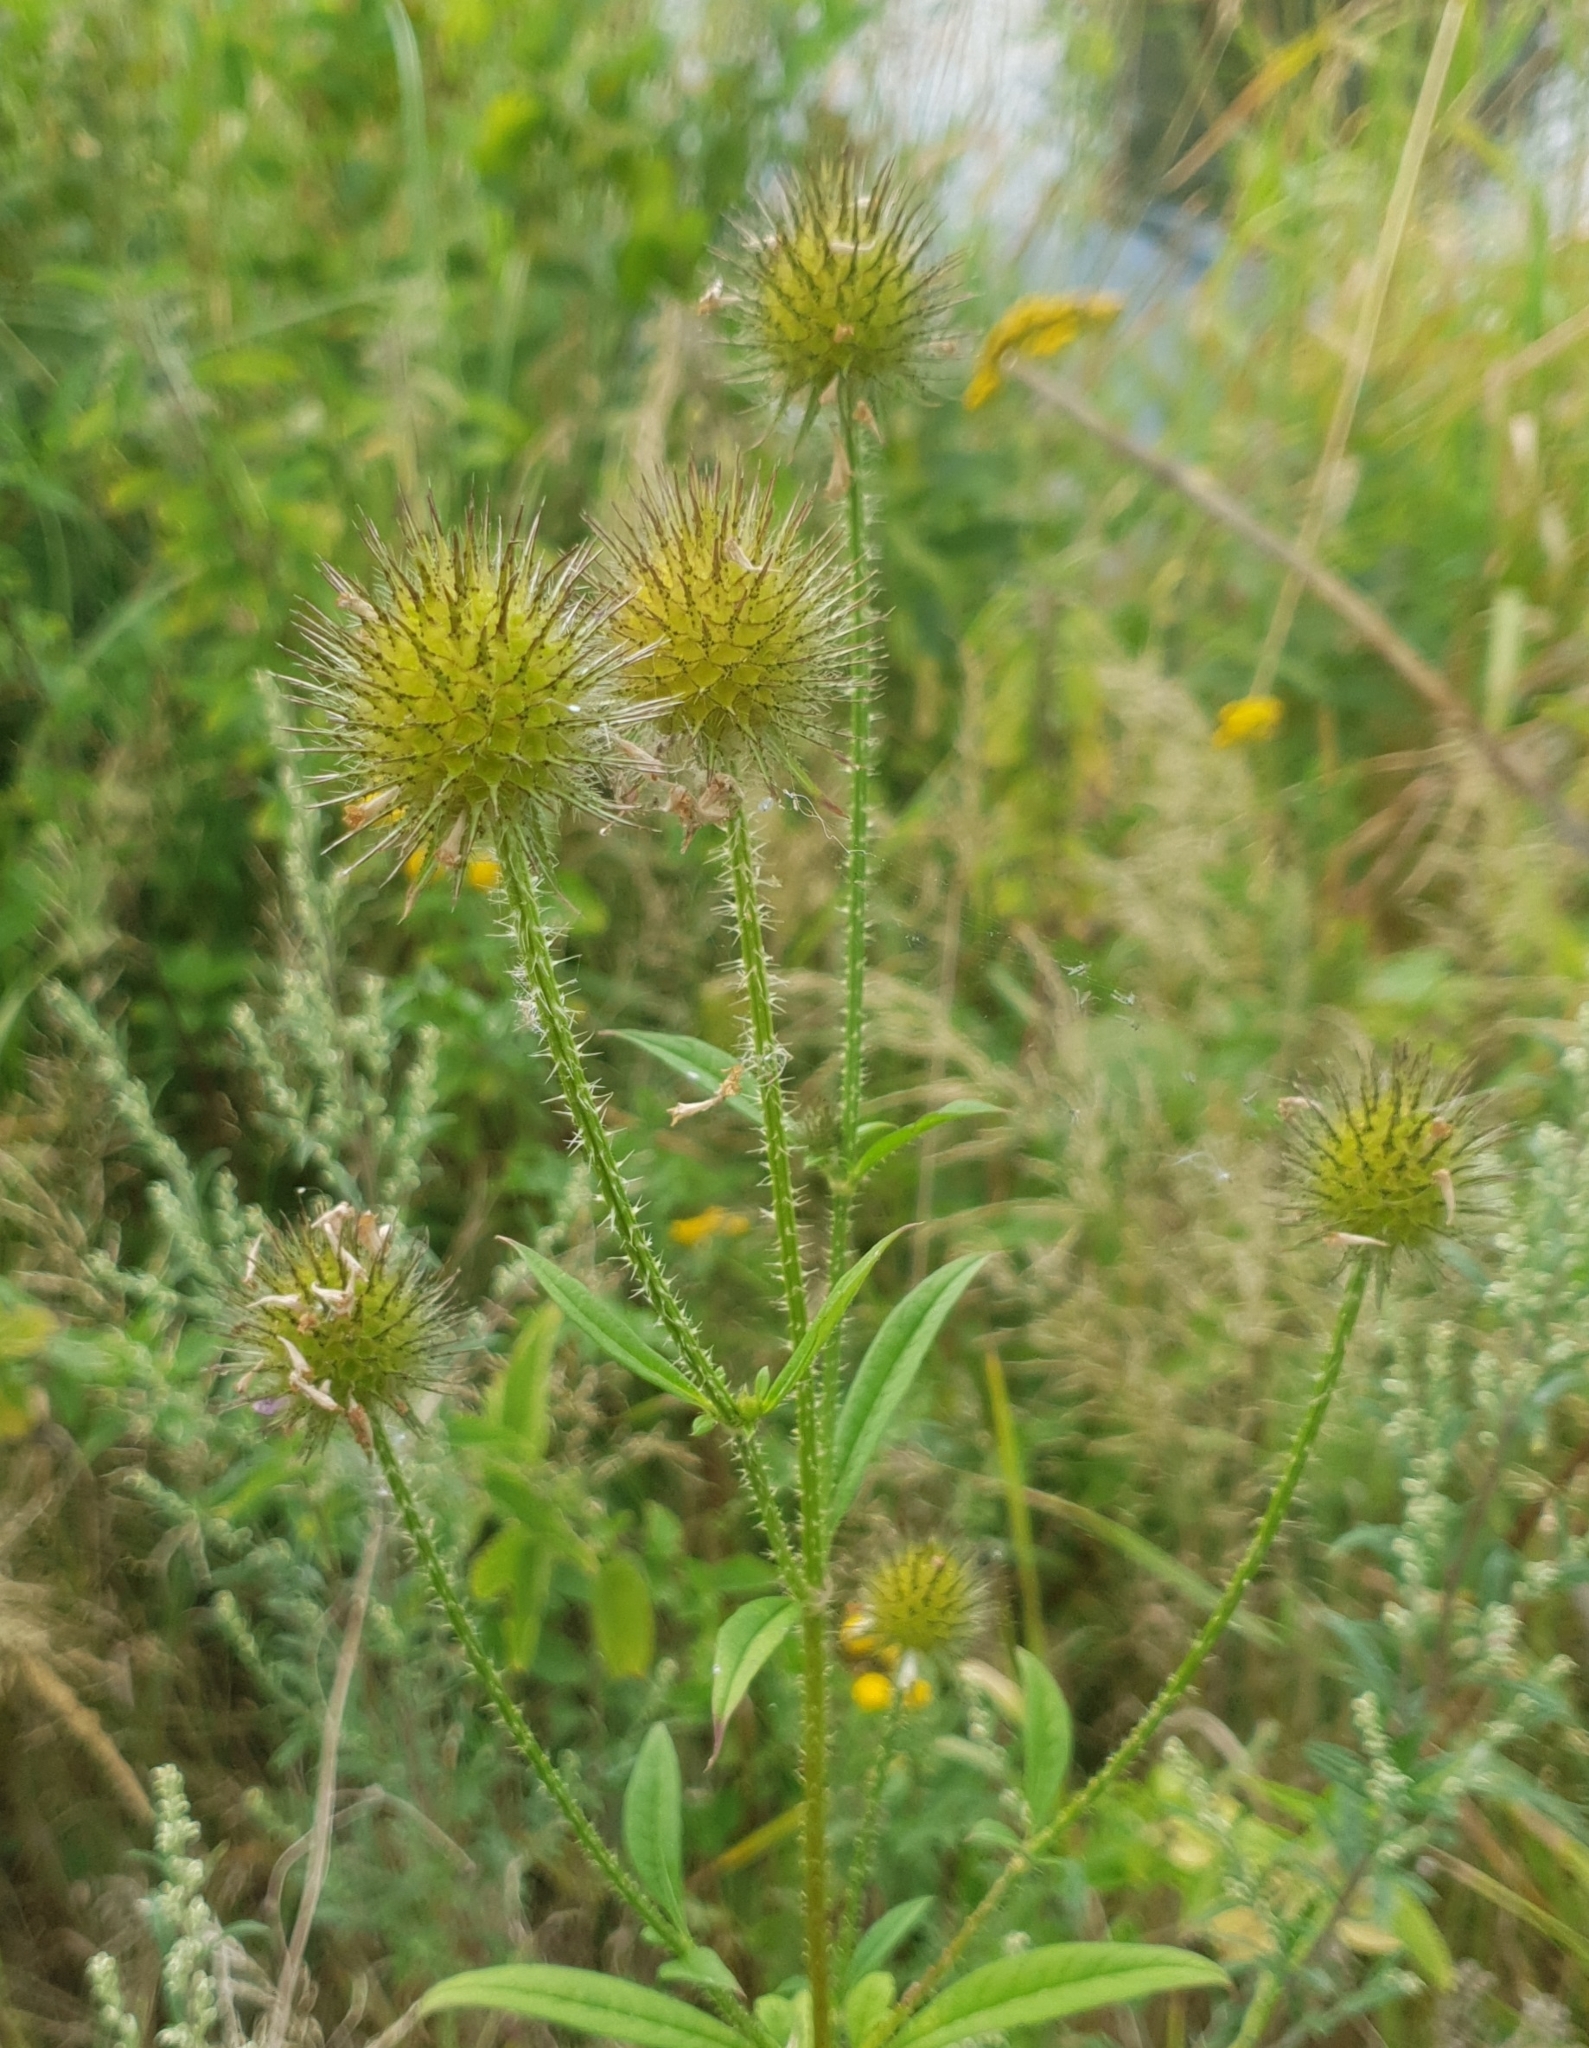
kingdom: Plantae
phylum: Tracheophyta
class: Magnoliopsida
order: Dipsacales
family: Caprifoliaceae
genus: Dipsacus
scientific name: Dipsacus strigosus
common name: Yellow-flowered teasel
